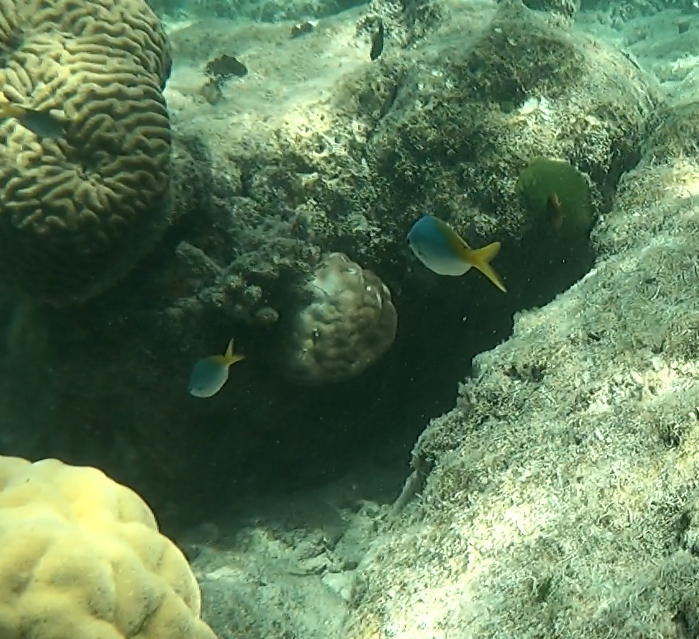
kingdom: Animalia
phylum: Chordata
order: Perciformes
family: Caesionidae
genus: Caesio
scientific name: Caesio cuning
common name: Red-bellied fusilier
